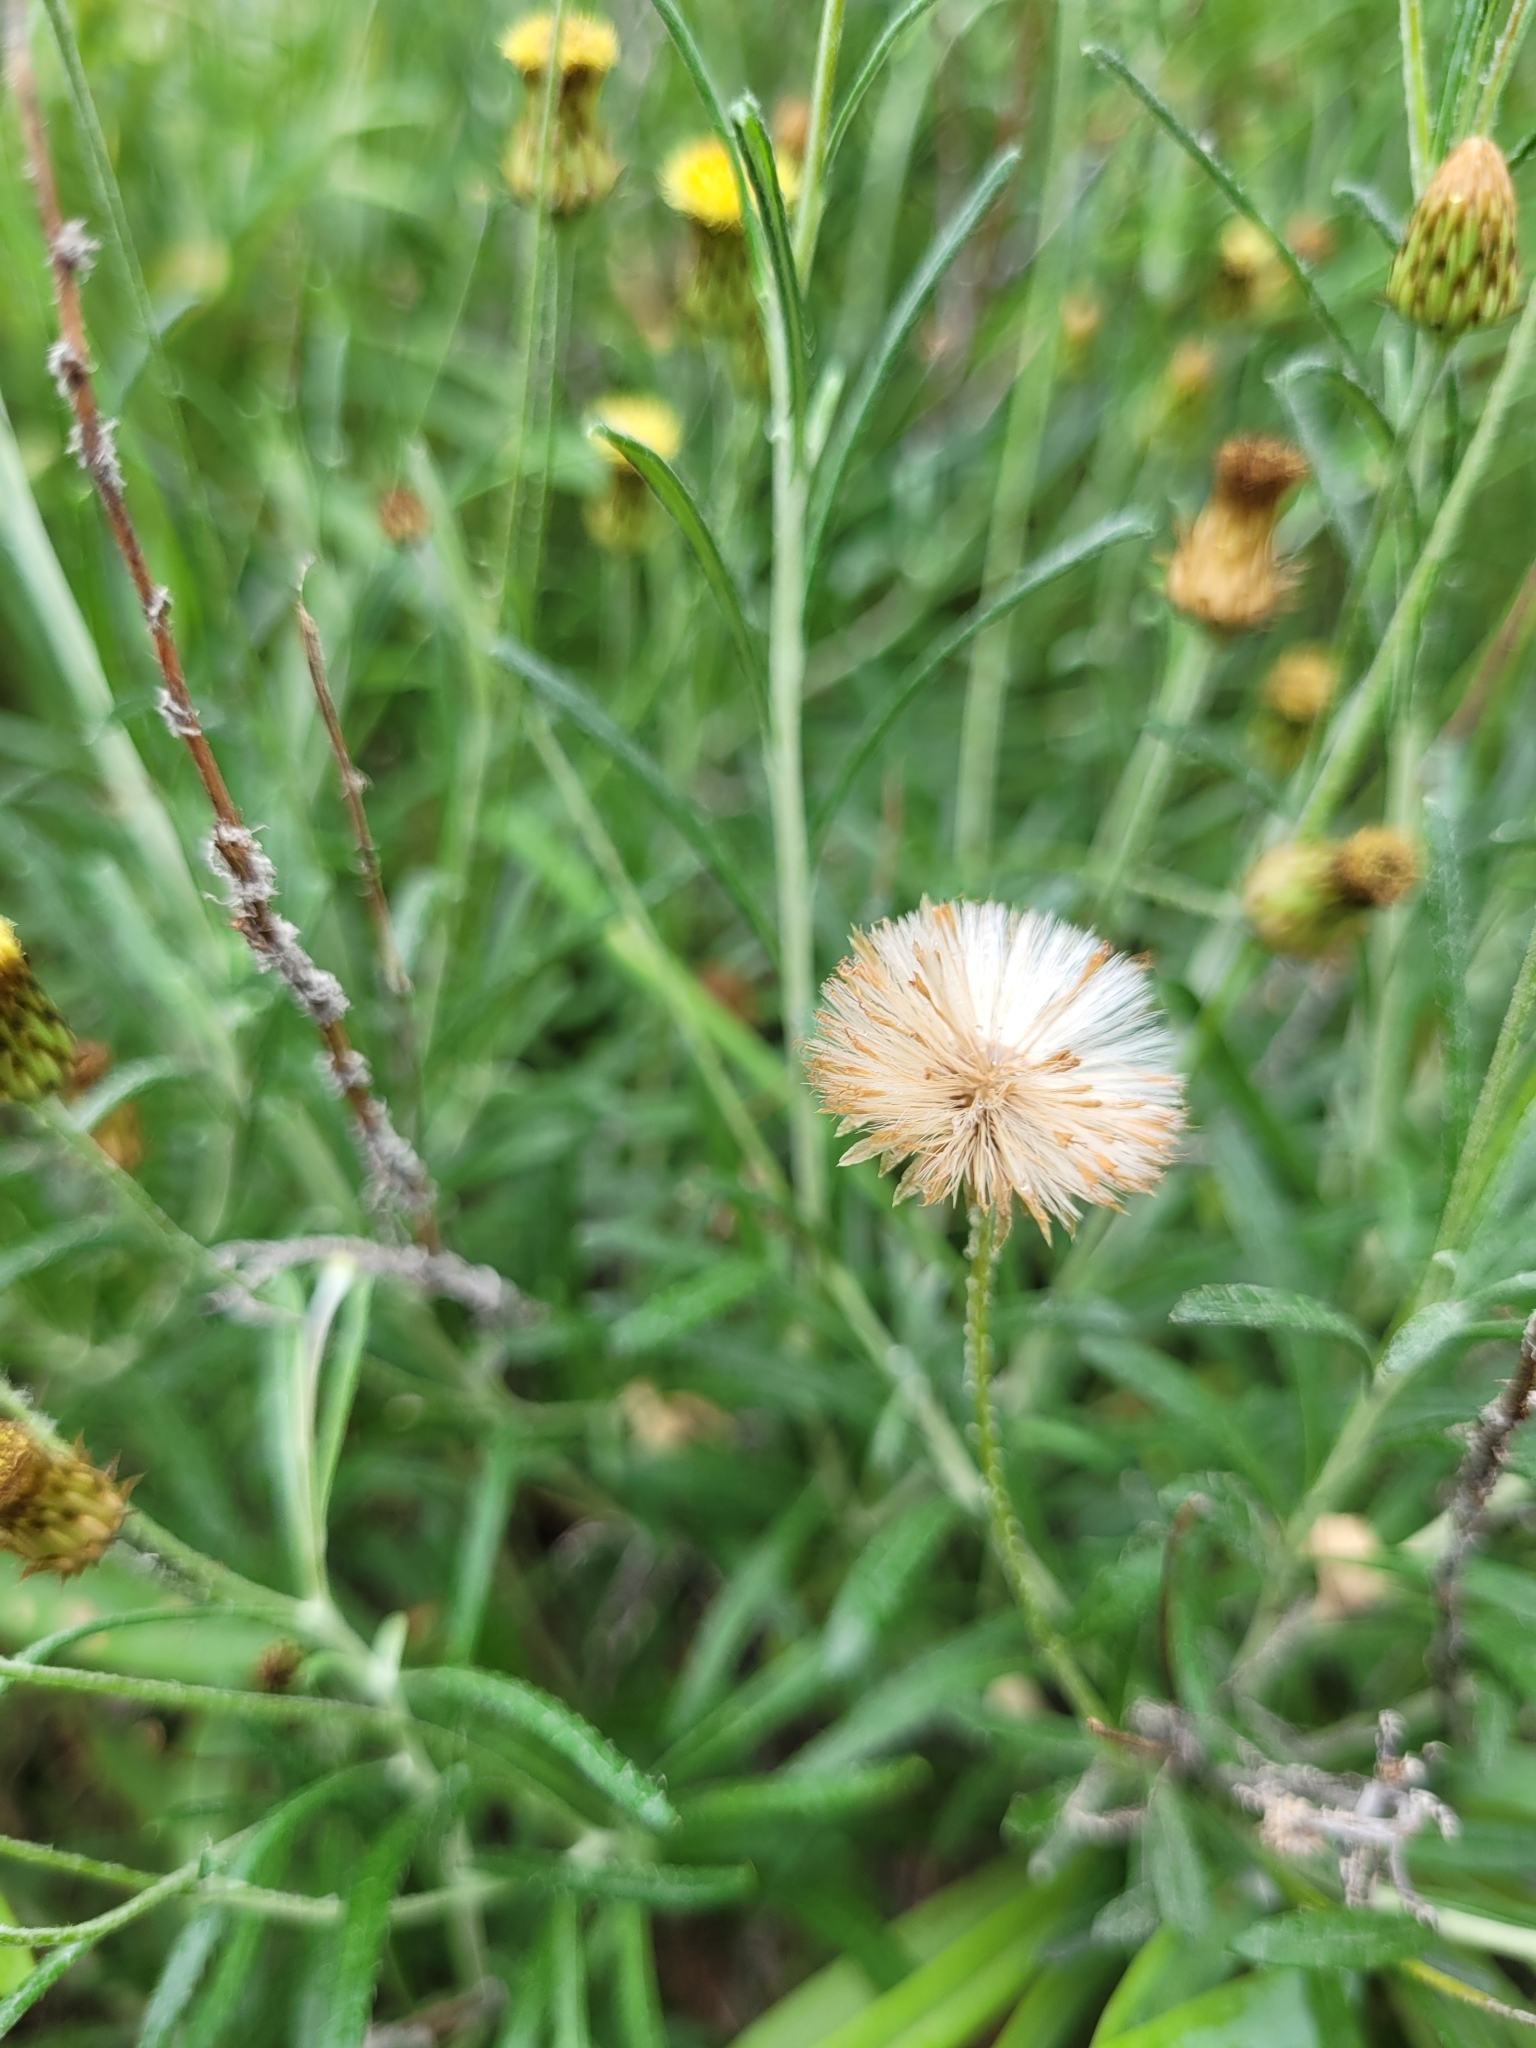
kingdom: Plantae
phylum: Tracheophyta
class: Magnoliopsida
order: Asterales
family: Asteraceae
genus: Phagnalon
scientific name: Phagnalon saxatile
